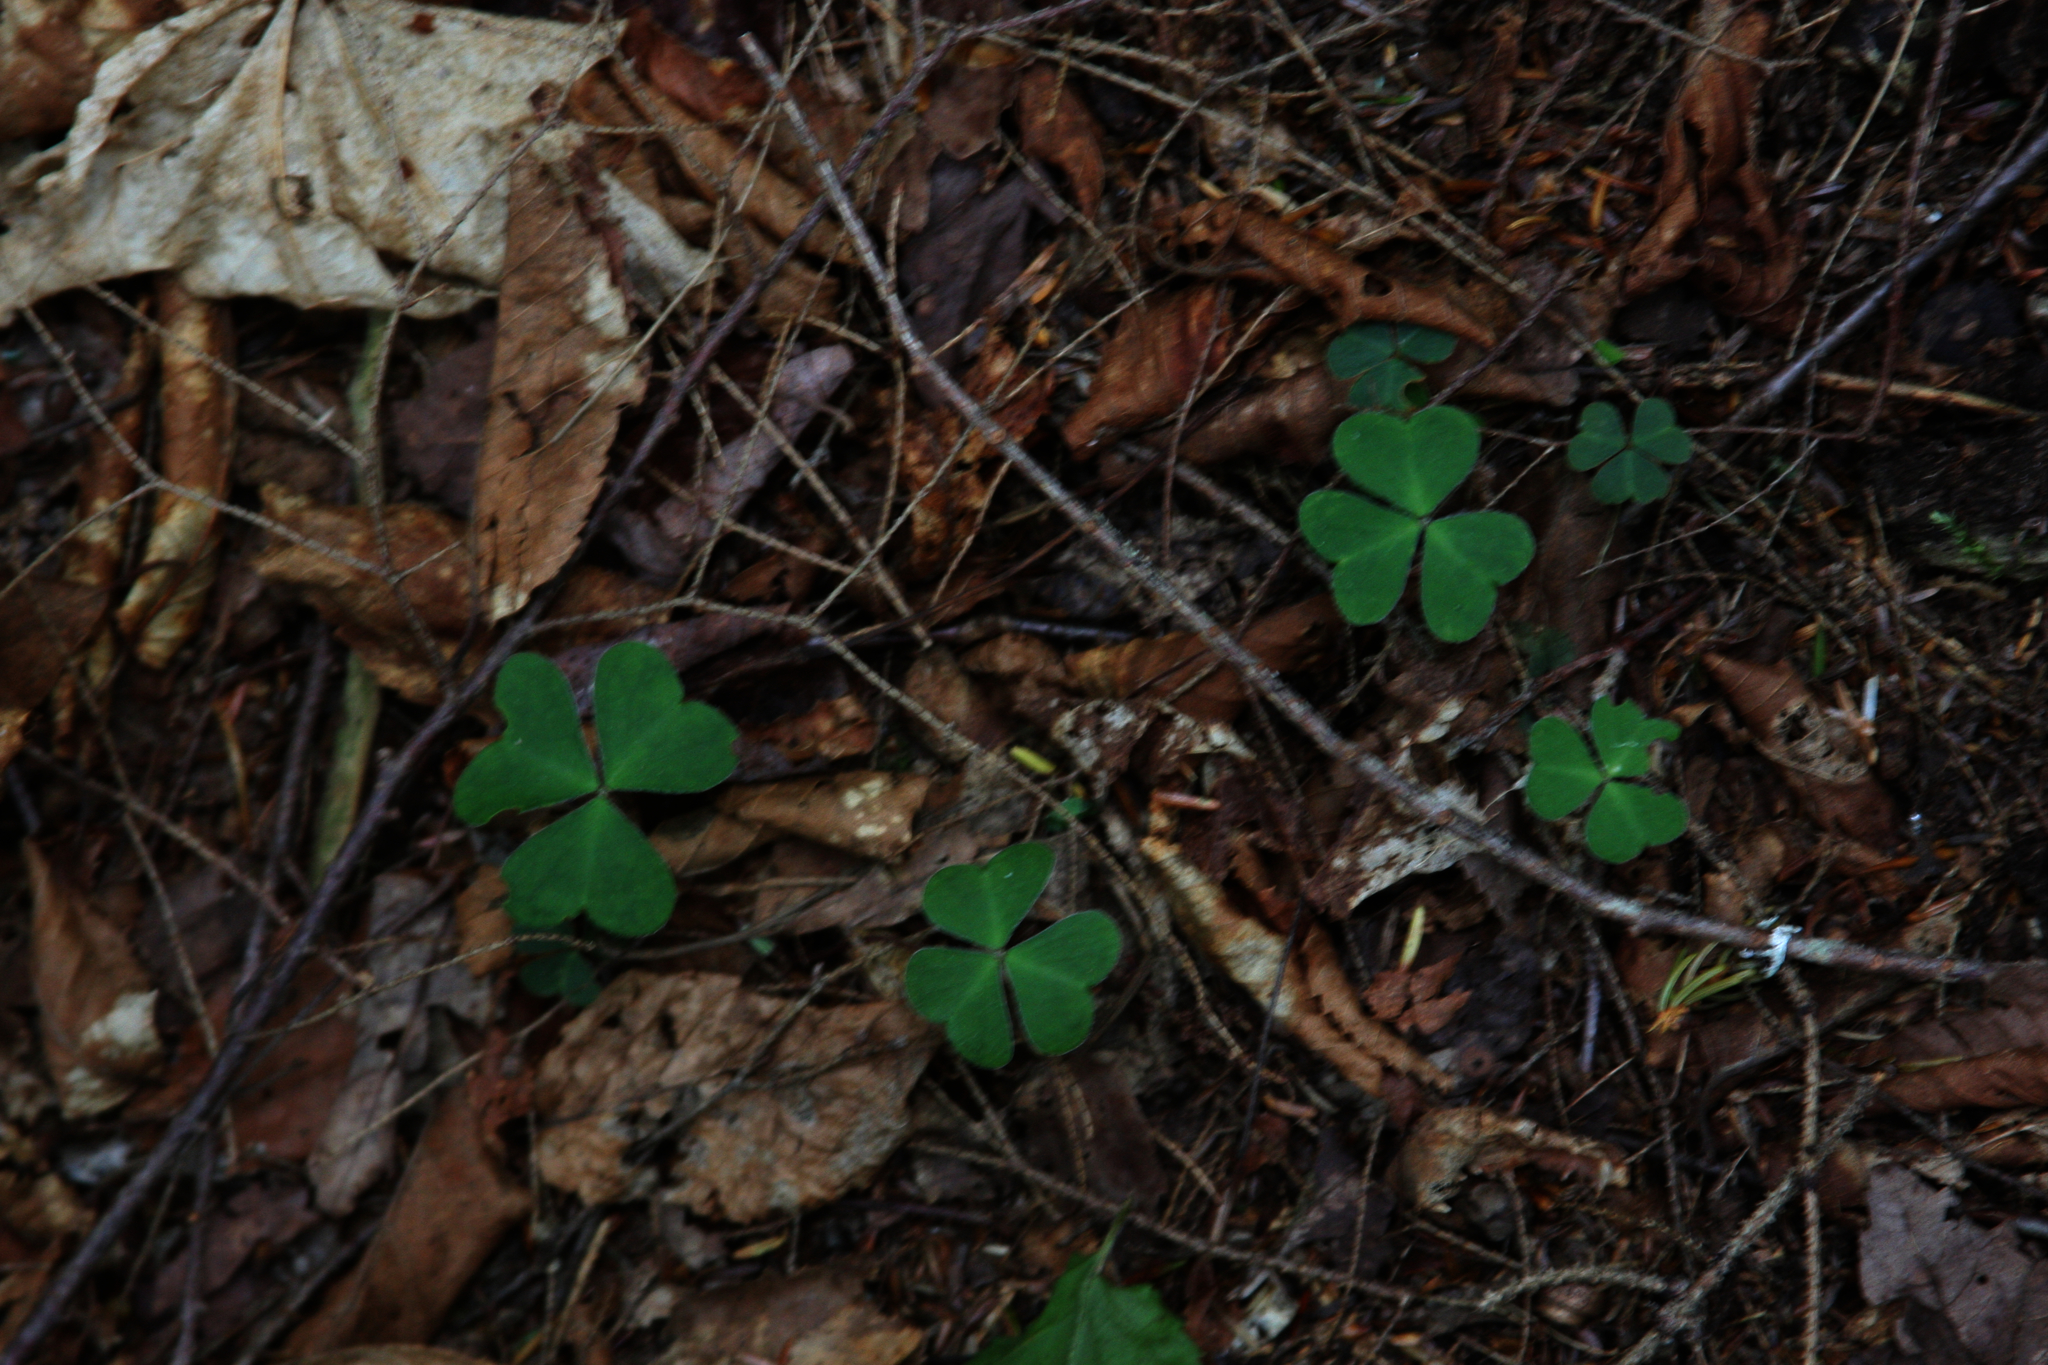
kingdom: Plantae
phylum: Tracheophyta
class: Magnoliopsida
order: Oxalidales
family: Oxalidaceae
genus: Oxalis
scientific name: Oxalis montana
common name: American wood-sorrel
